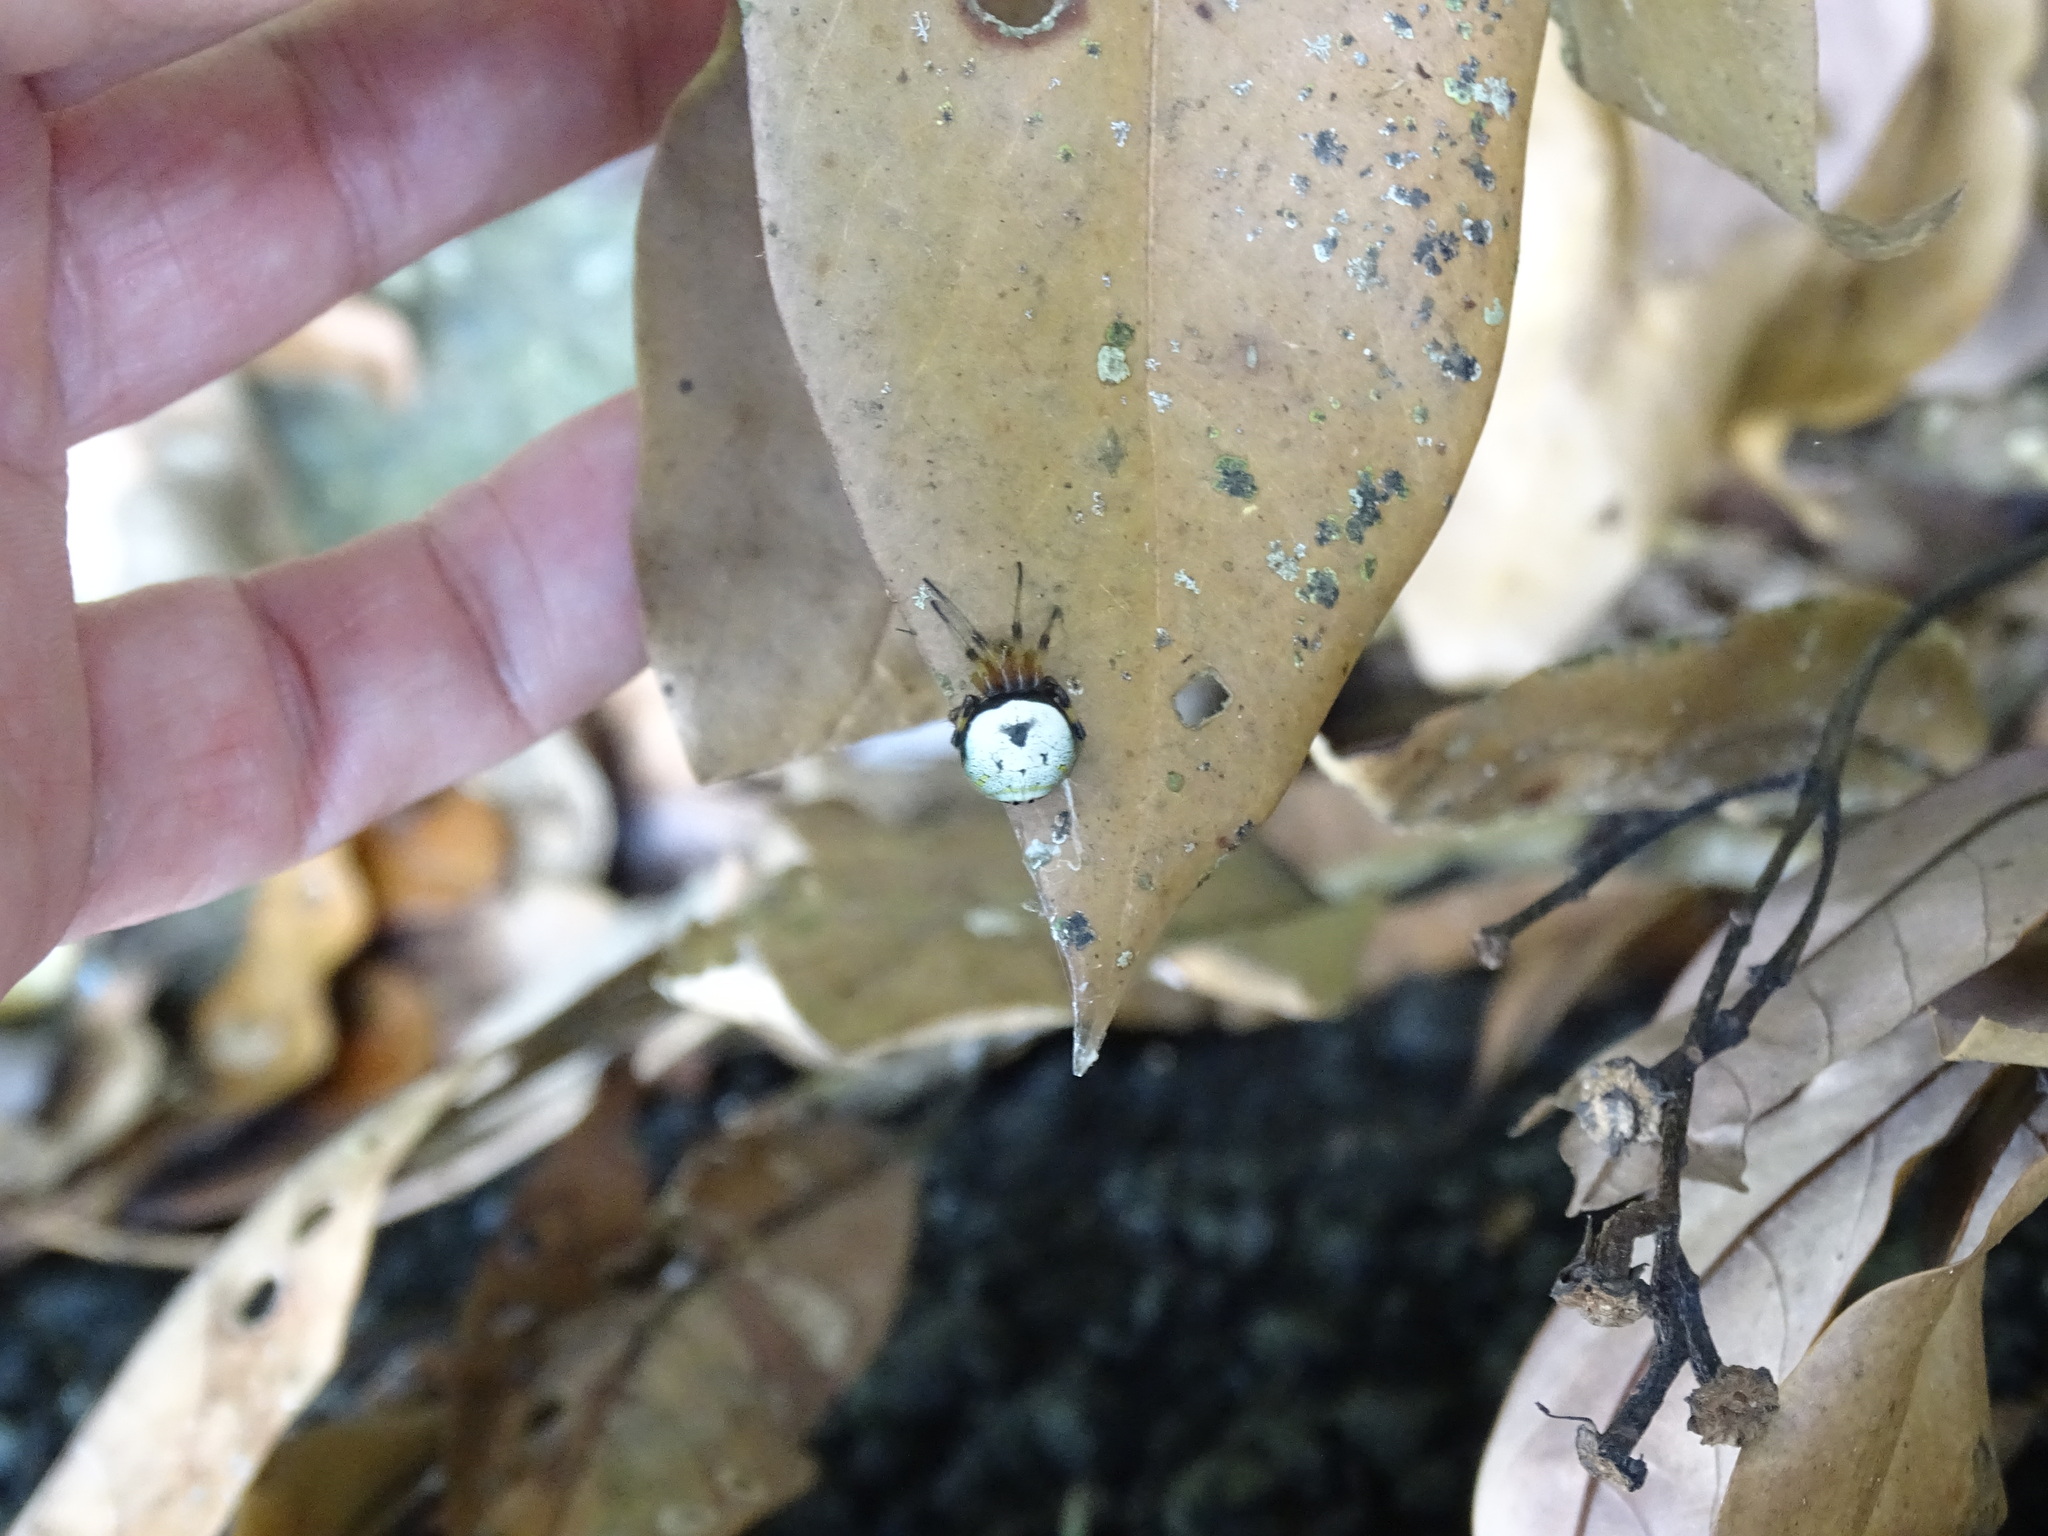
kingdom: Animalia
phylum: Arthropoda
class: Arachnida
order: Araneae
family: Araneidae
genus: Bijoaraneus
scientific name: Bijoaraneus komachi
